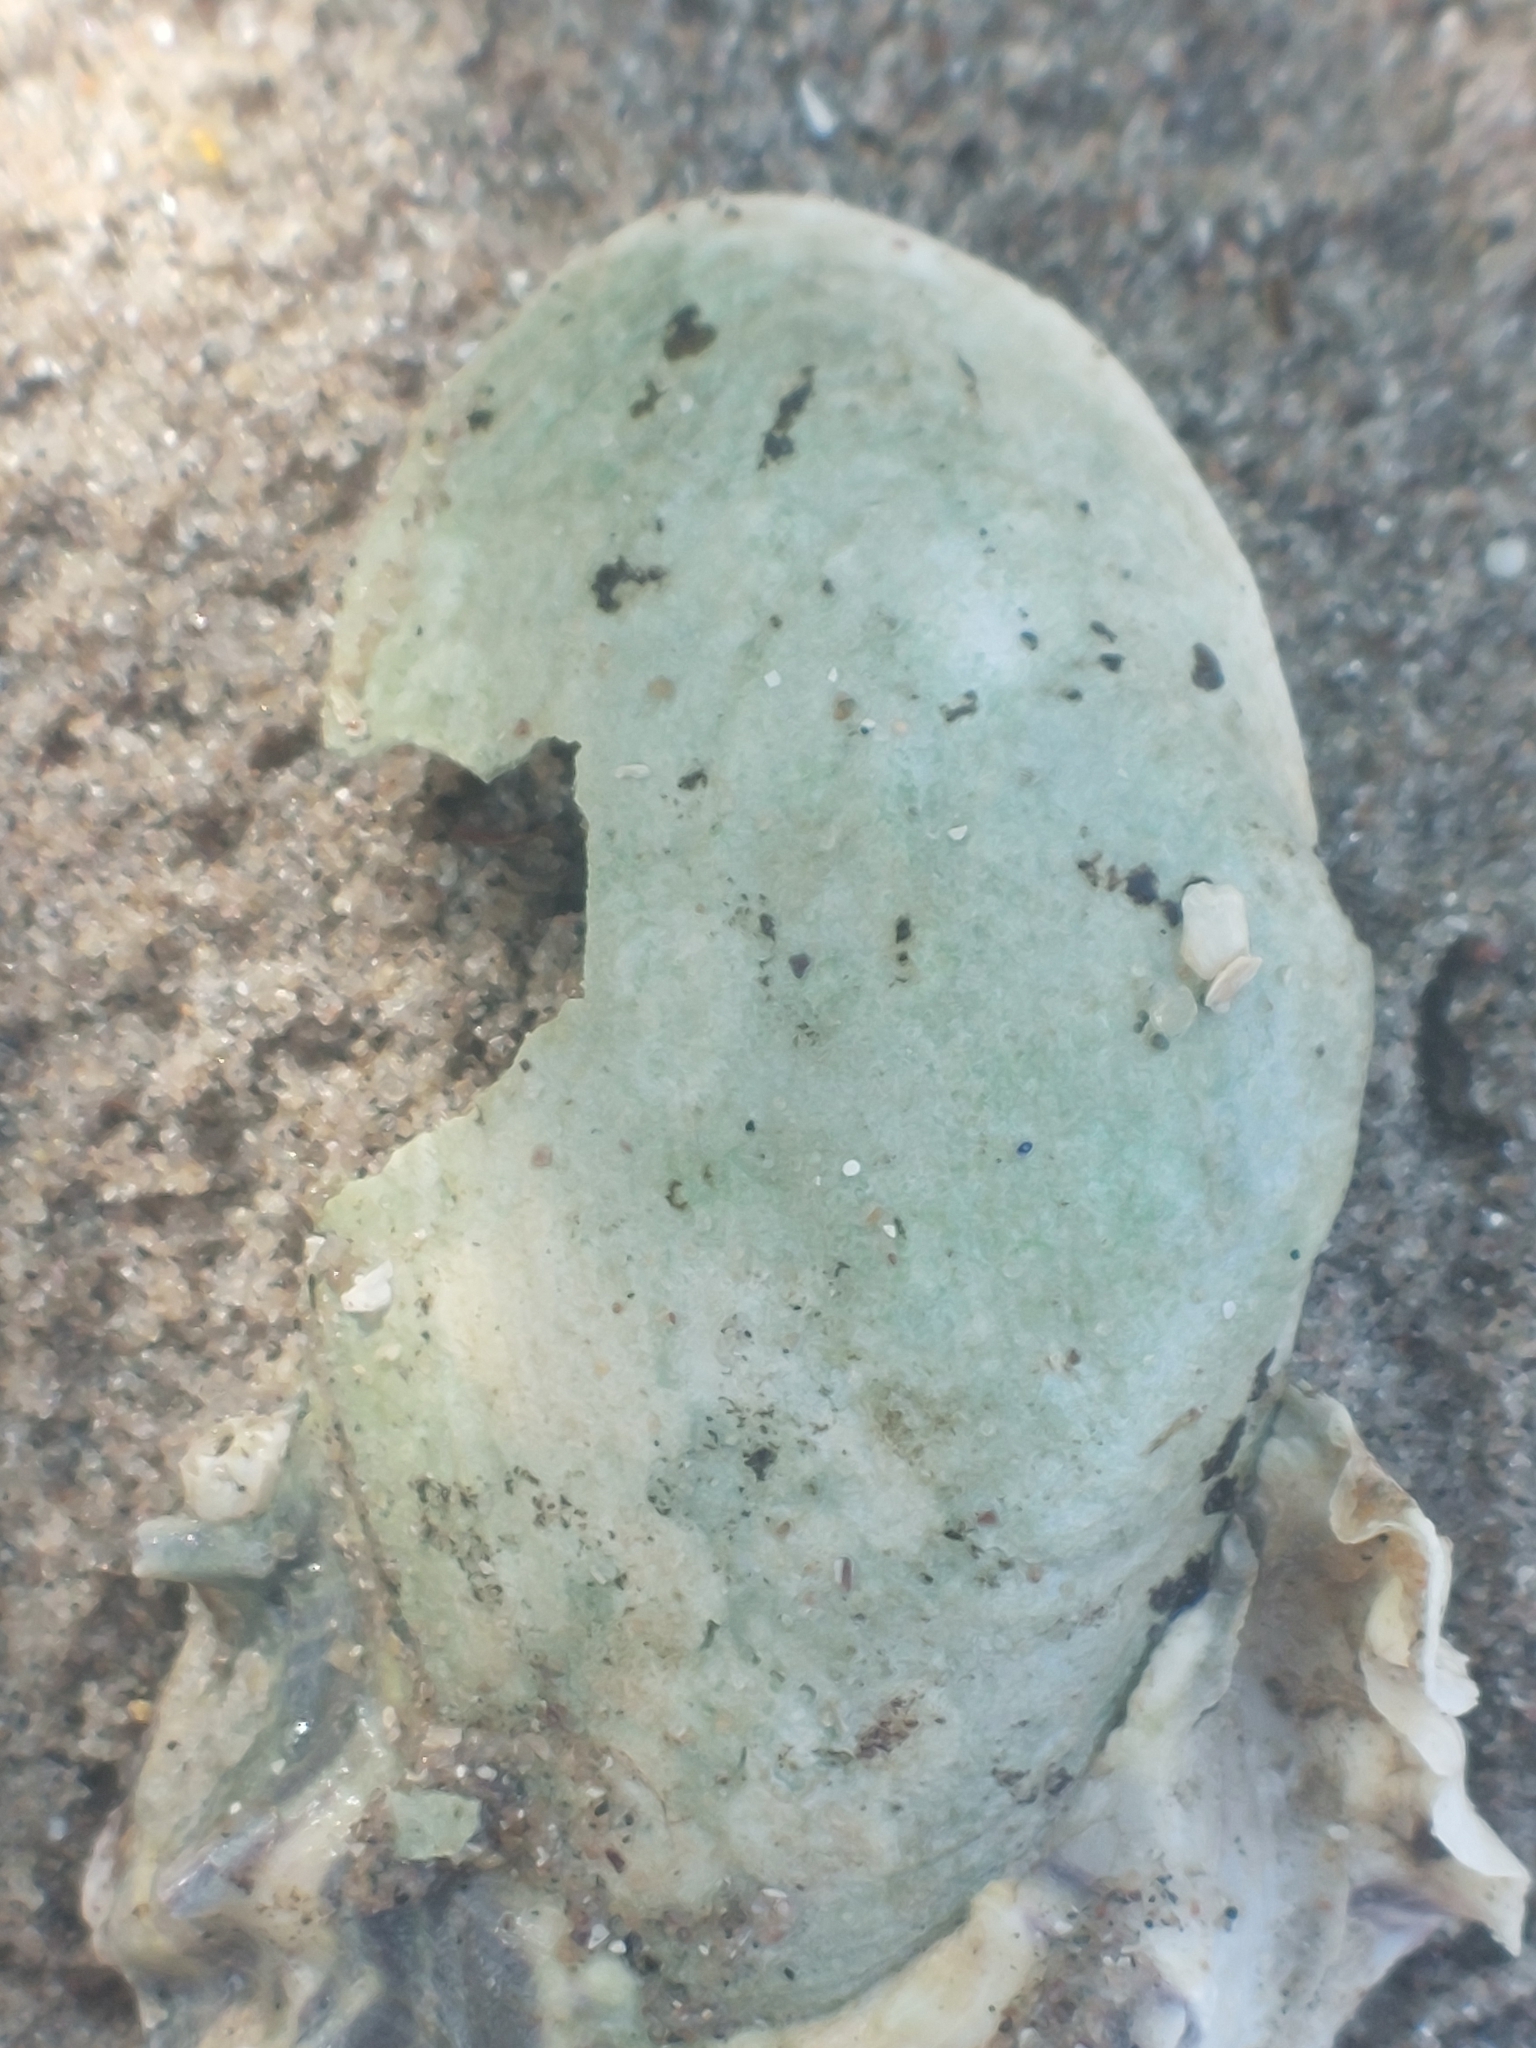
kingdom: Animalia
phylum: Mollusca
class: Bivalvia
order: Myida
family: Myidae
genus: Mya
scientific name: Mya arenaria
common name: Soft-shelled clam
